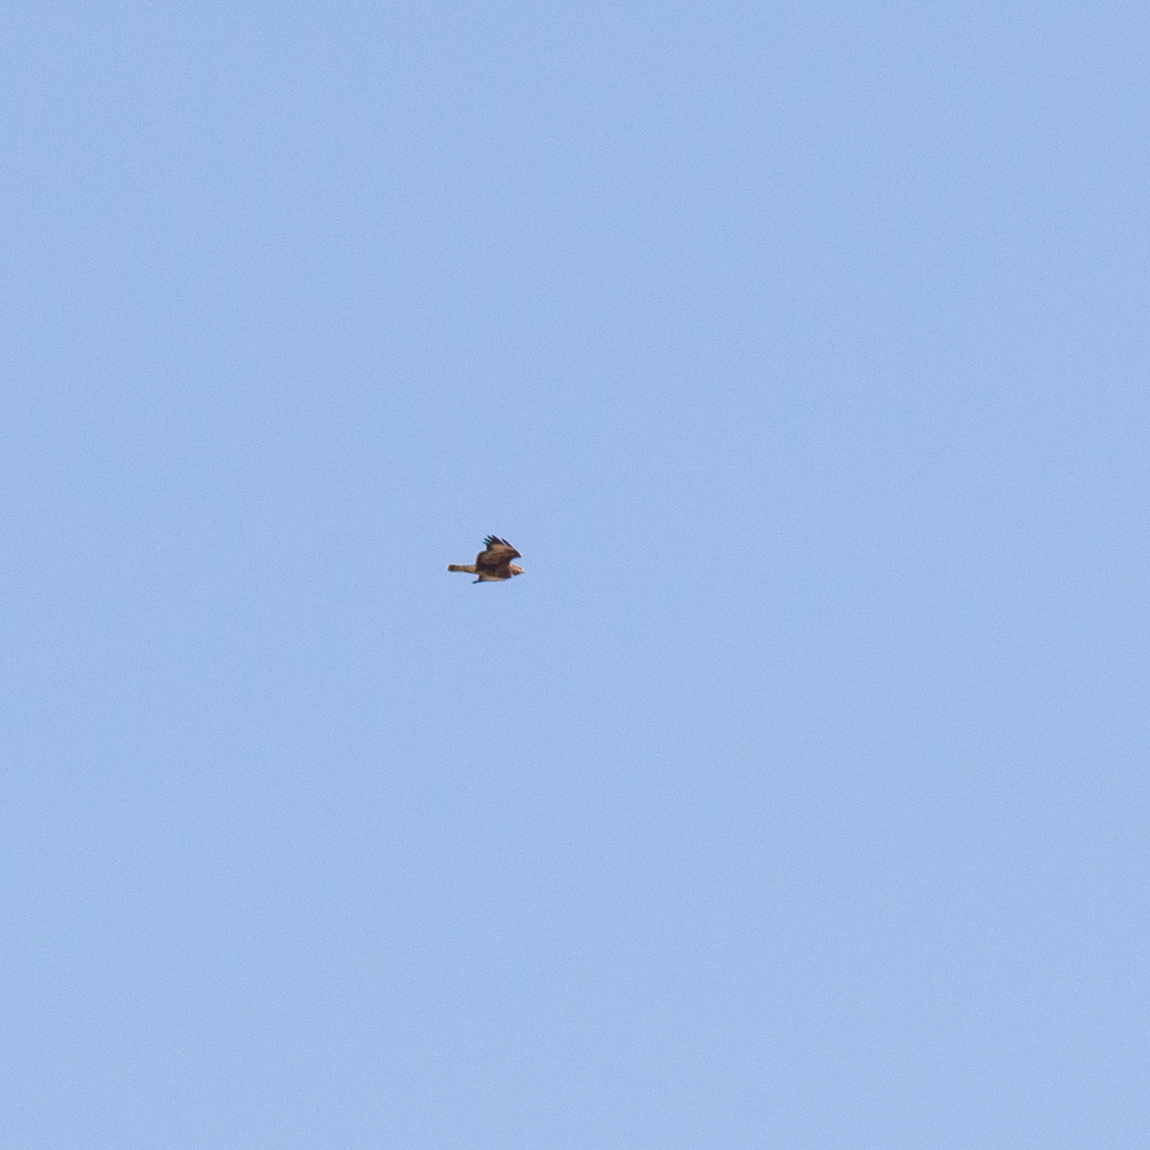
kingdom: Animalia
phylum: Chordata
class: Aves
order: Accipitriformes
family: Accipitridae
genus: Buteo
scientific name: Buteo buteo
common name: Common buzzard
